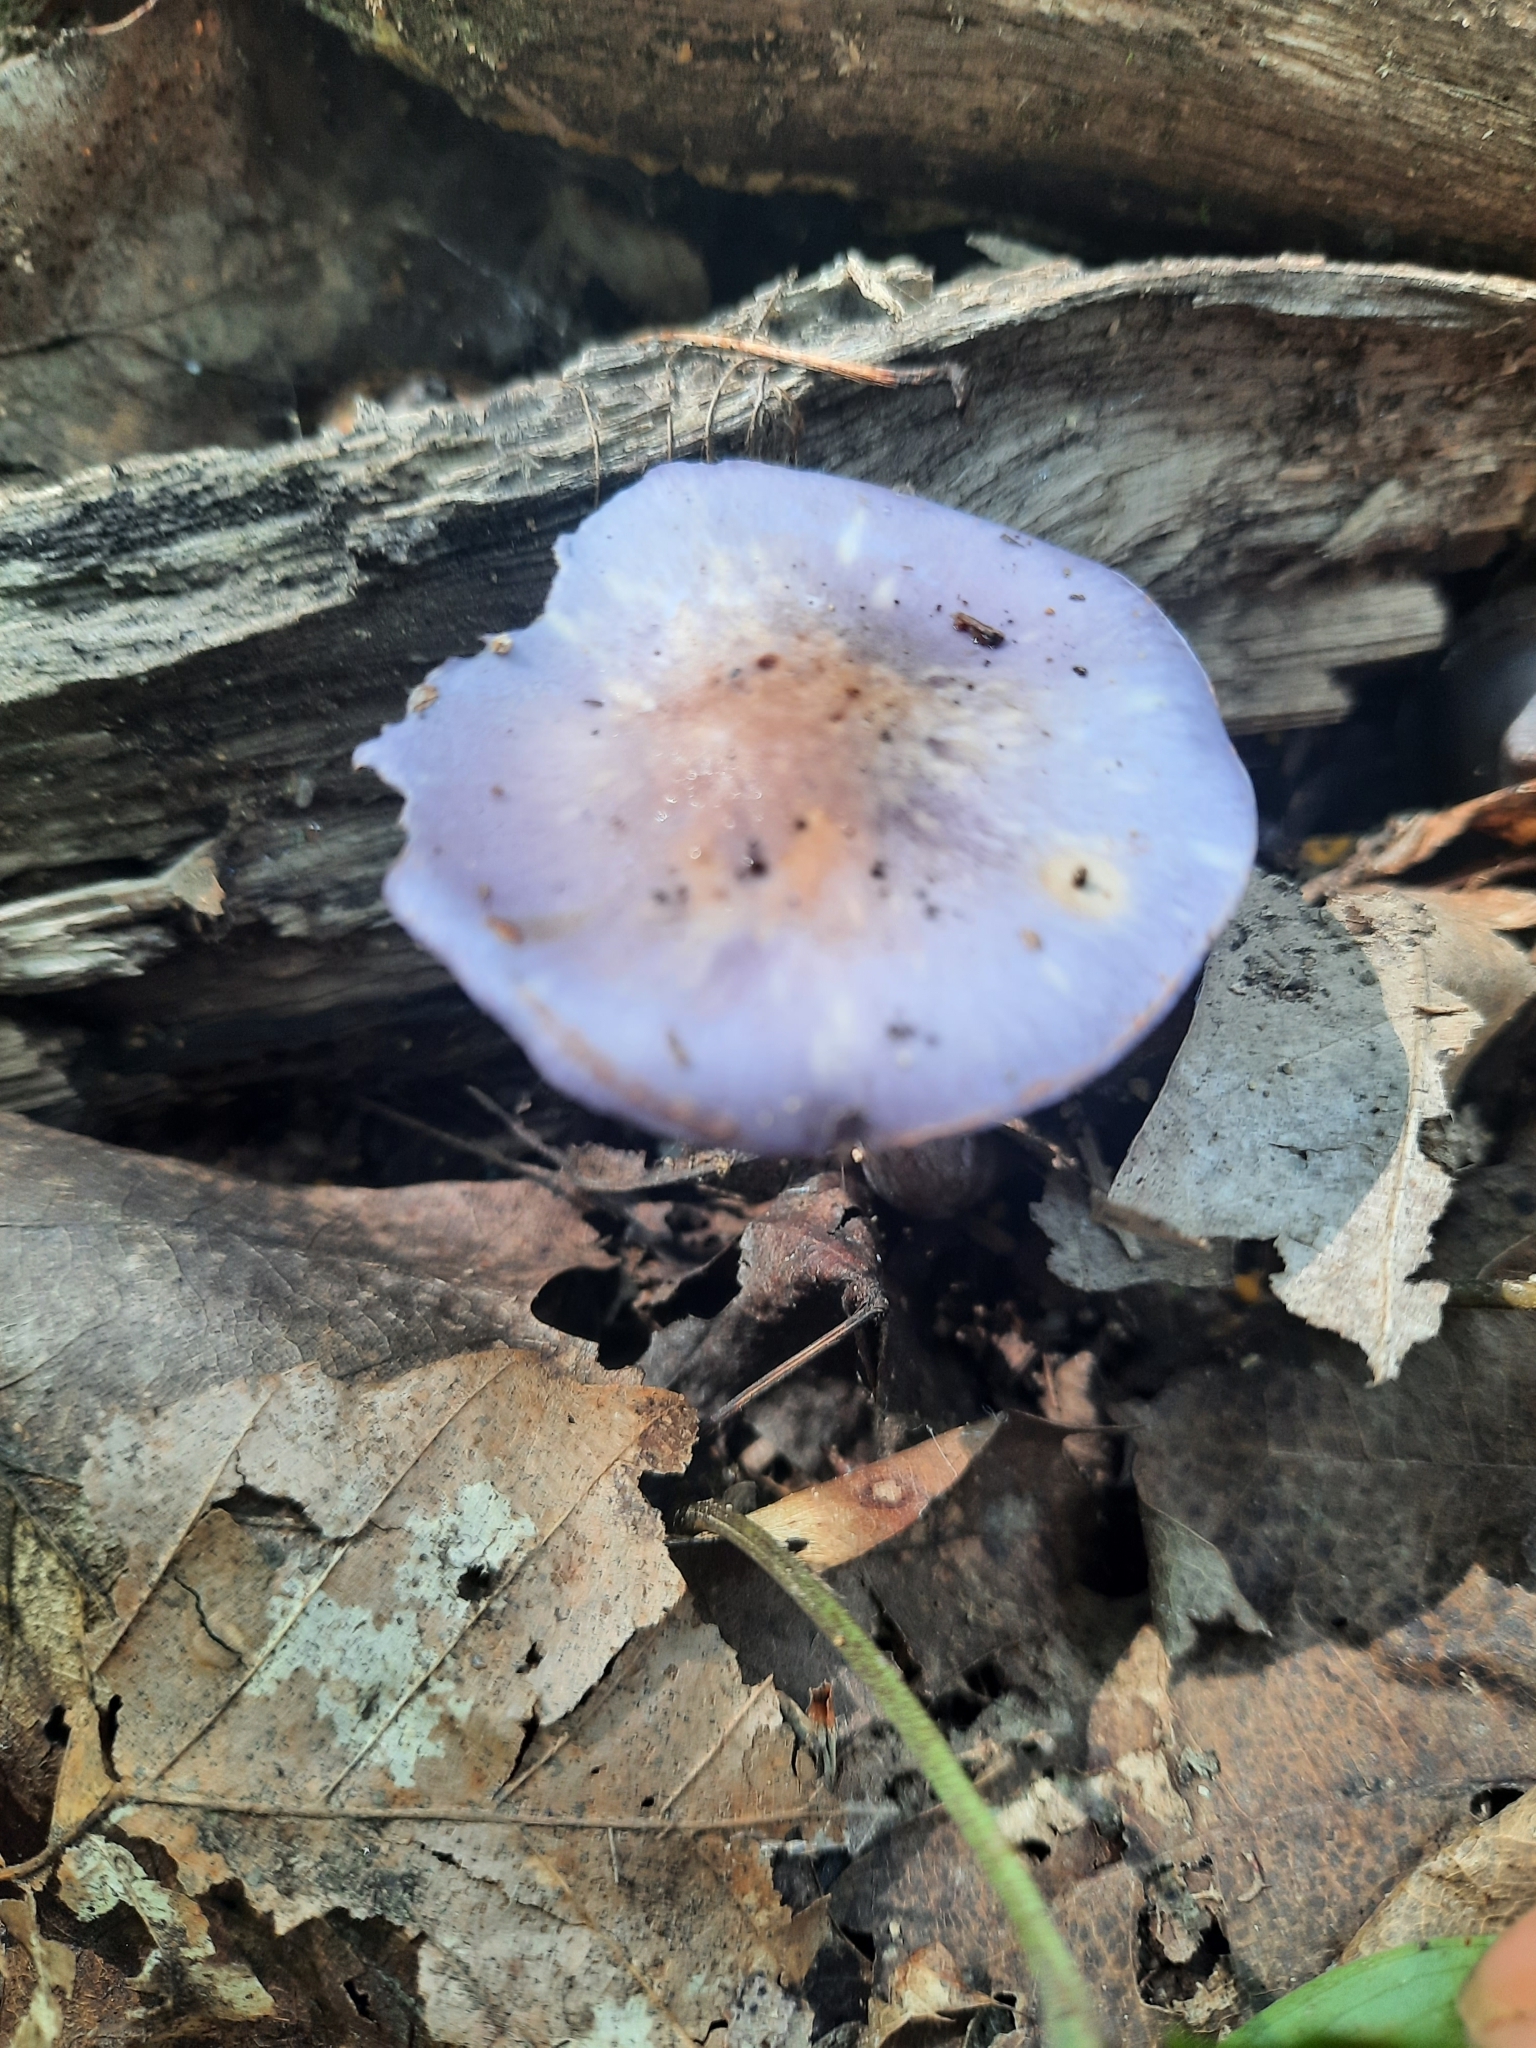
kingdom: Fungi
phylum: Basidiomycota
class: Agaricomycetes
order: Agaricales
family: Cortinariaceae
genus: Cortinarius
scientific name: Cortinarius iodes
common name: Viscid violet cort
